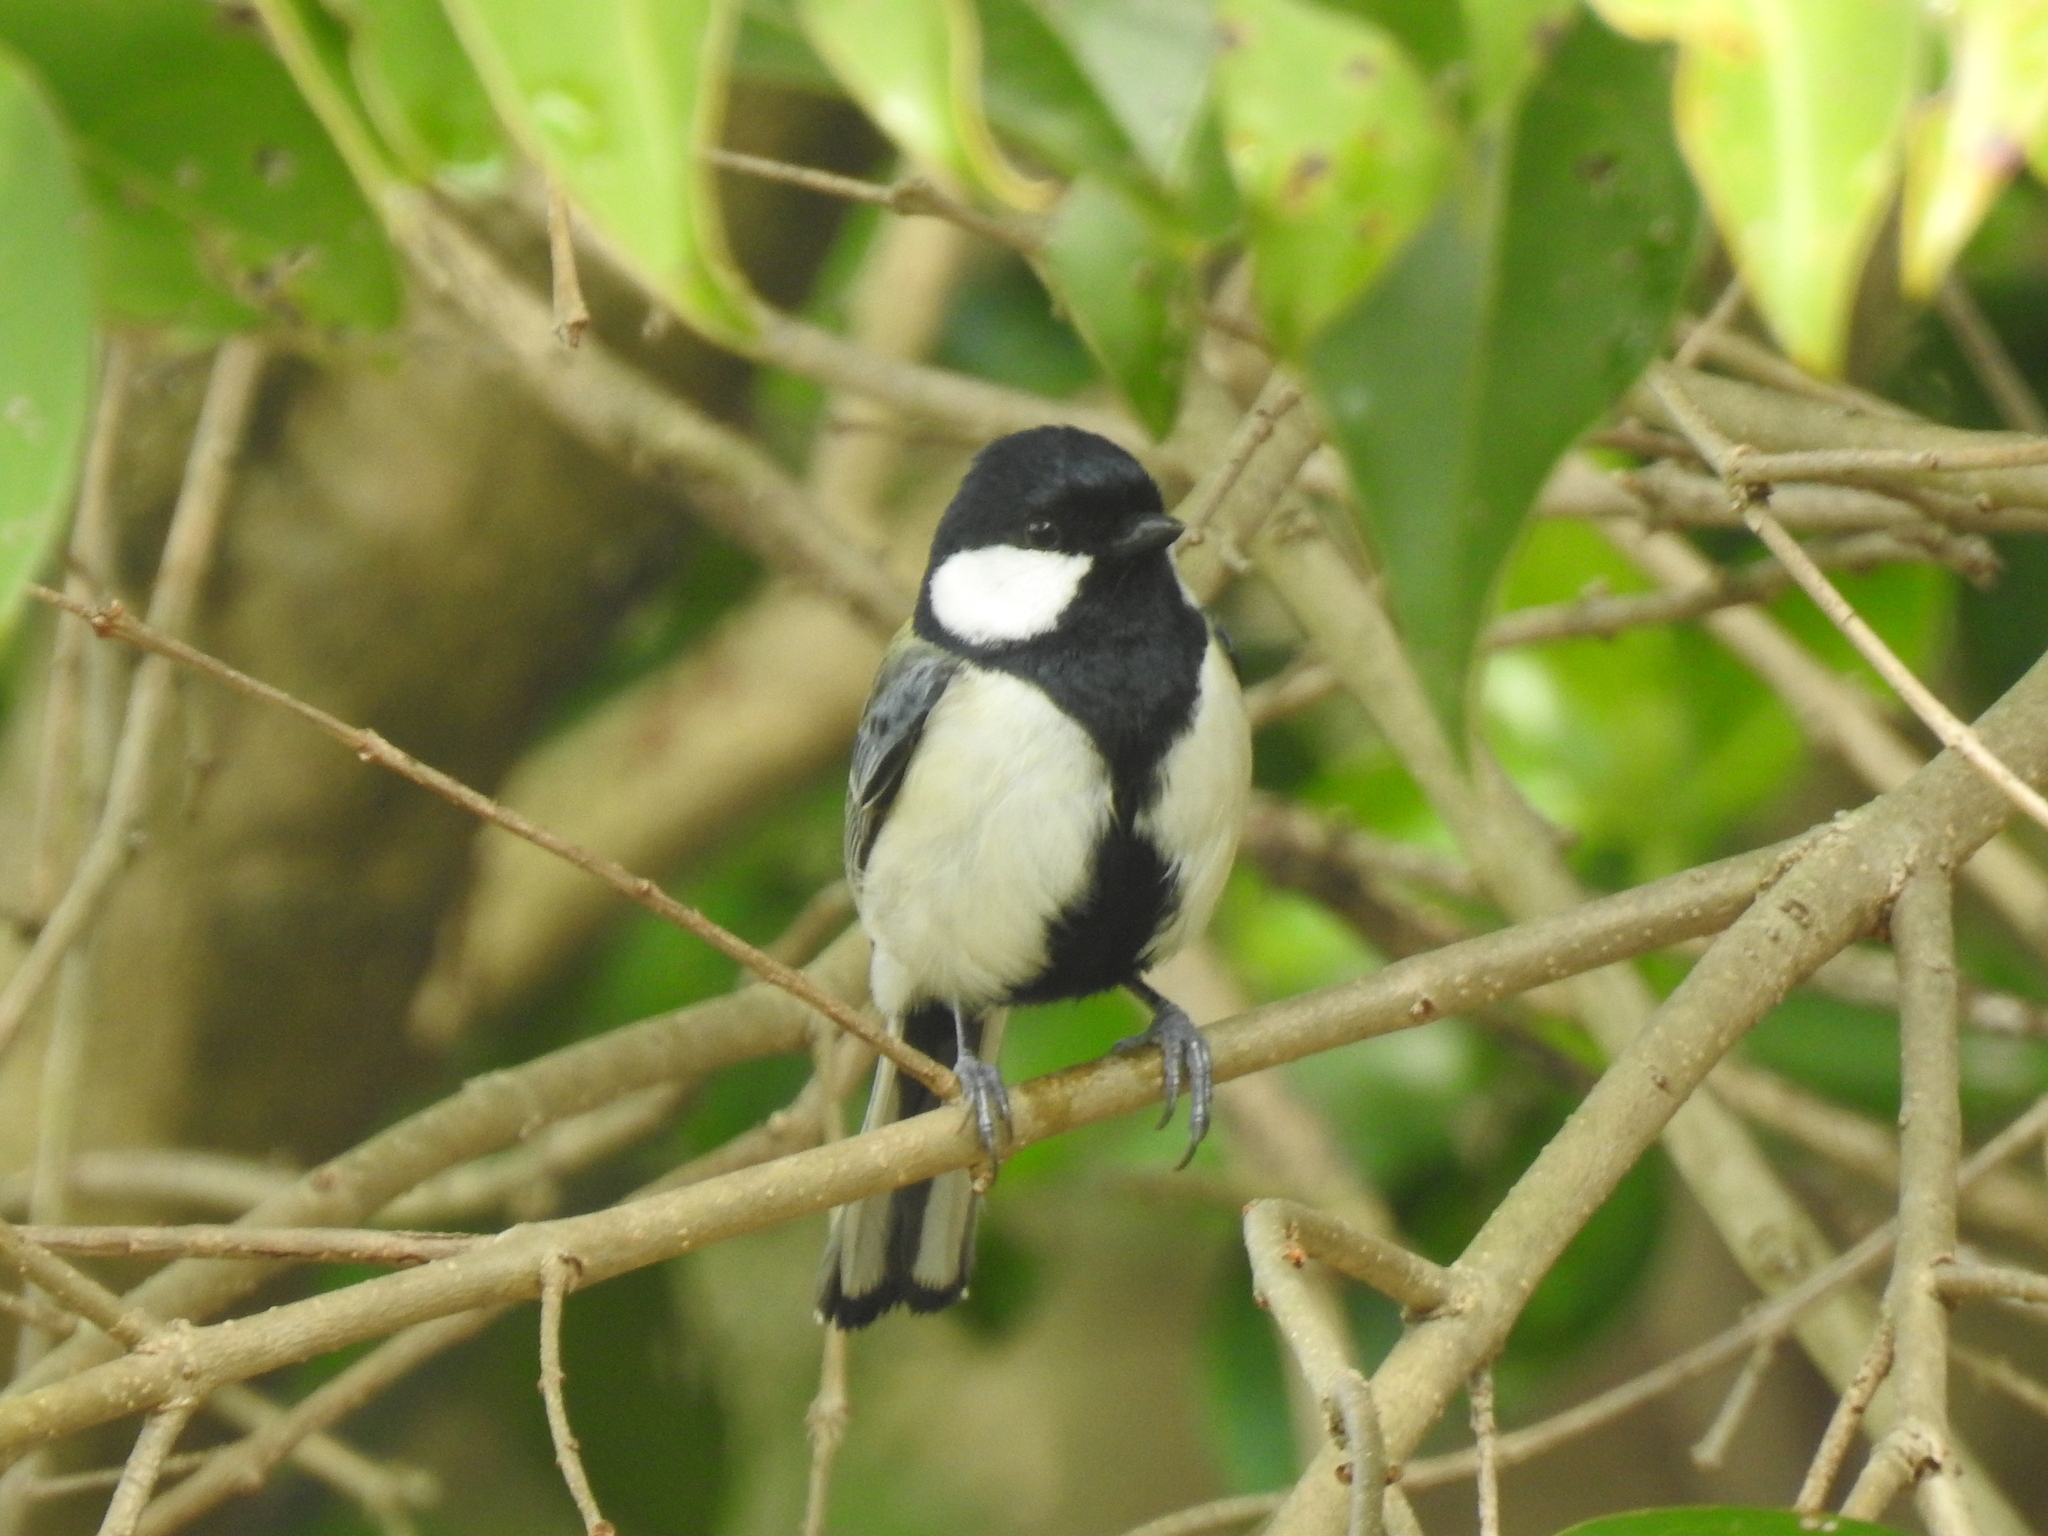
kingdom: Animalia
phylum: Chordata
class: Aves
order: Passeriformes
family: Paridae
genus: Parus
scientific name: Parus minor
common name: Japanese tit
